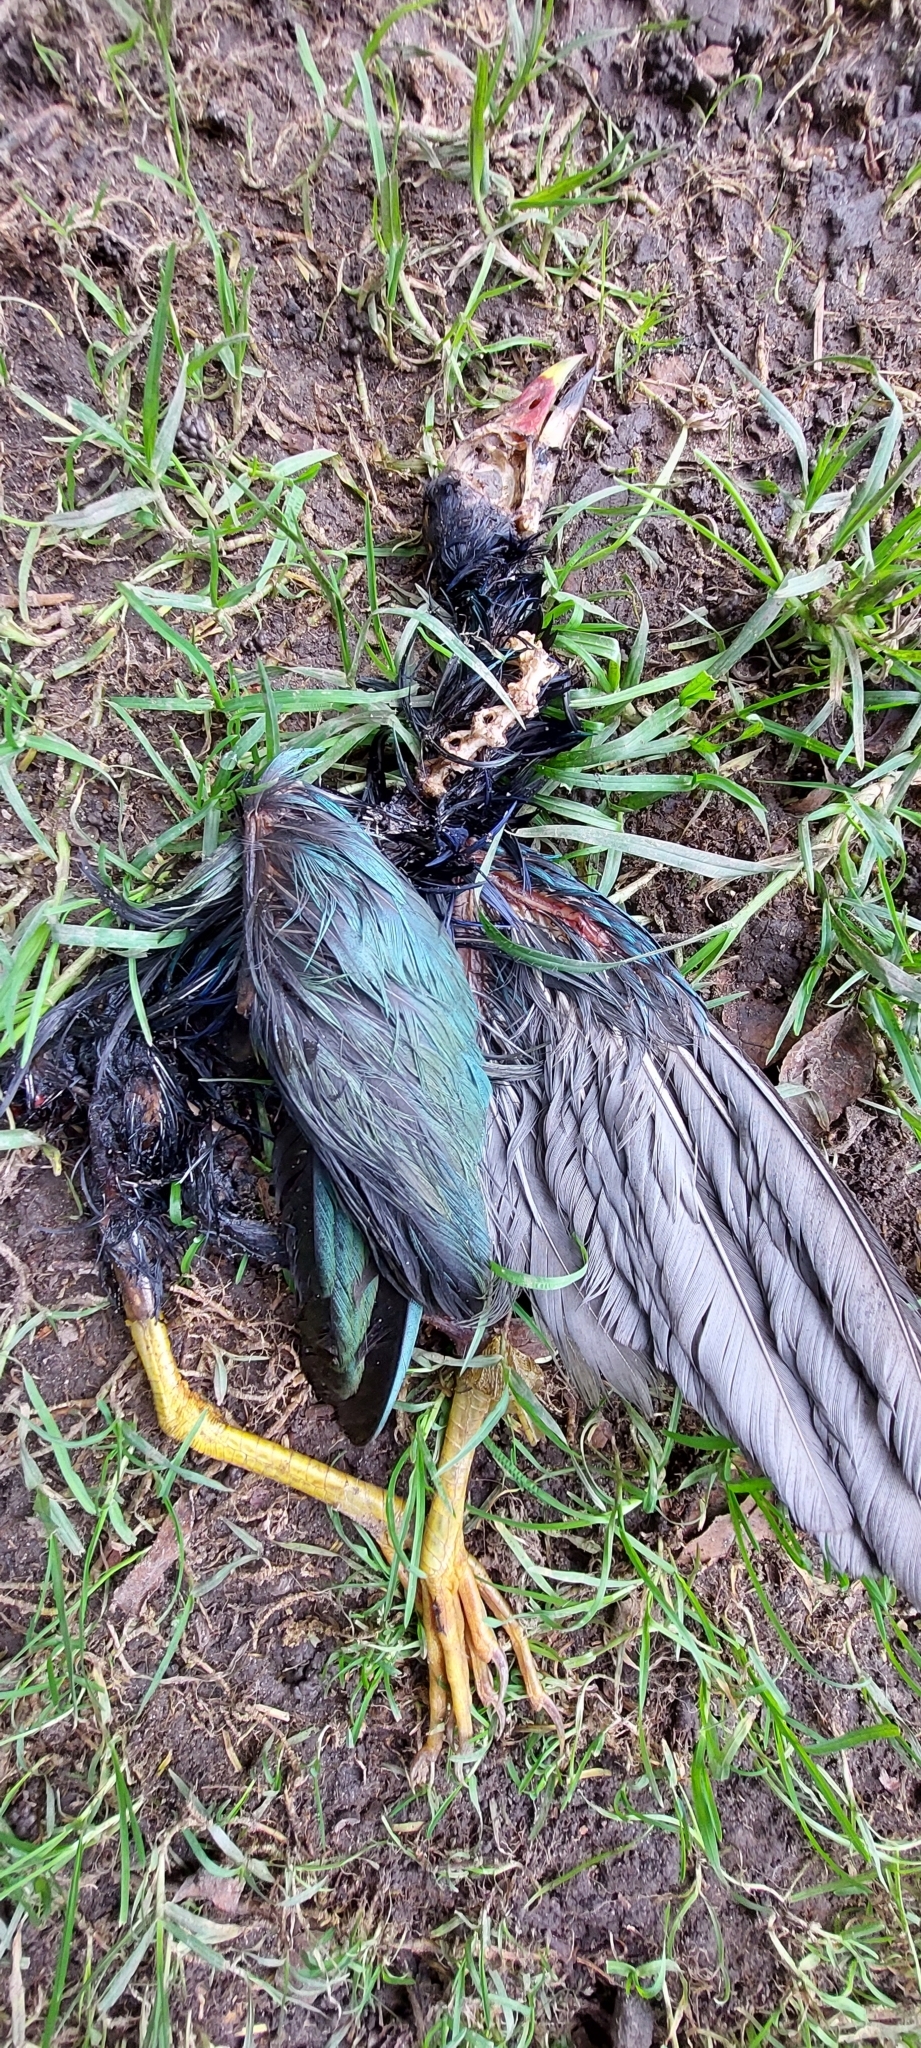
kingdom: Animalia
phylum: Chordata
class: Aves
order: Gruiformes
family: Rallidae
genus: Porphyrio
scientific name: Porphyrio martinica
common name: Purple gallinule
